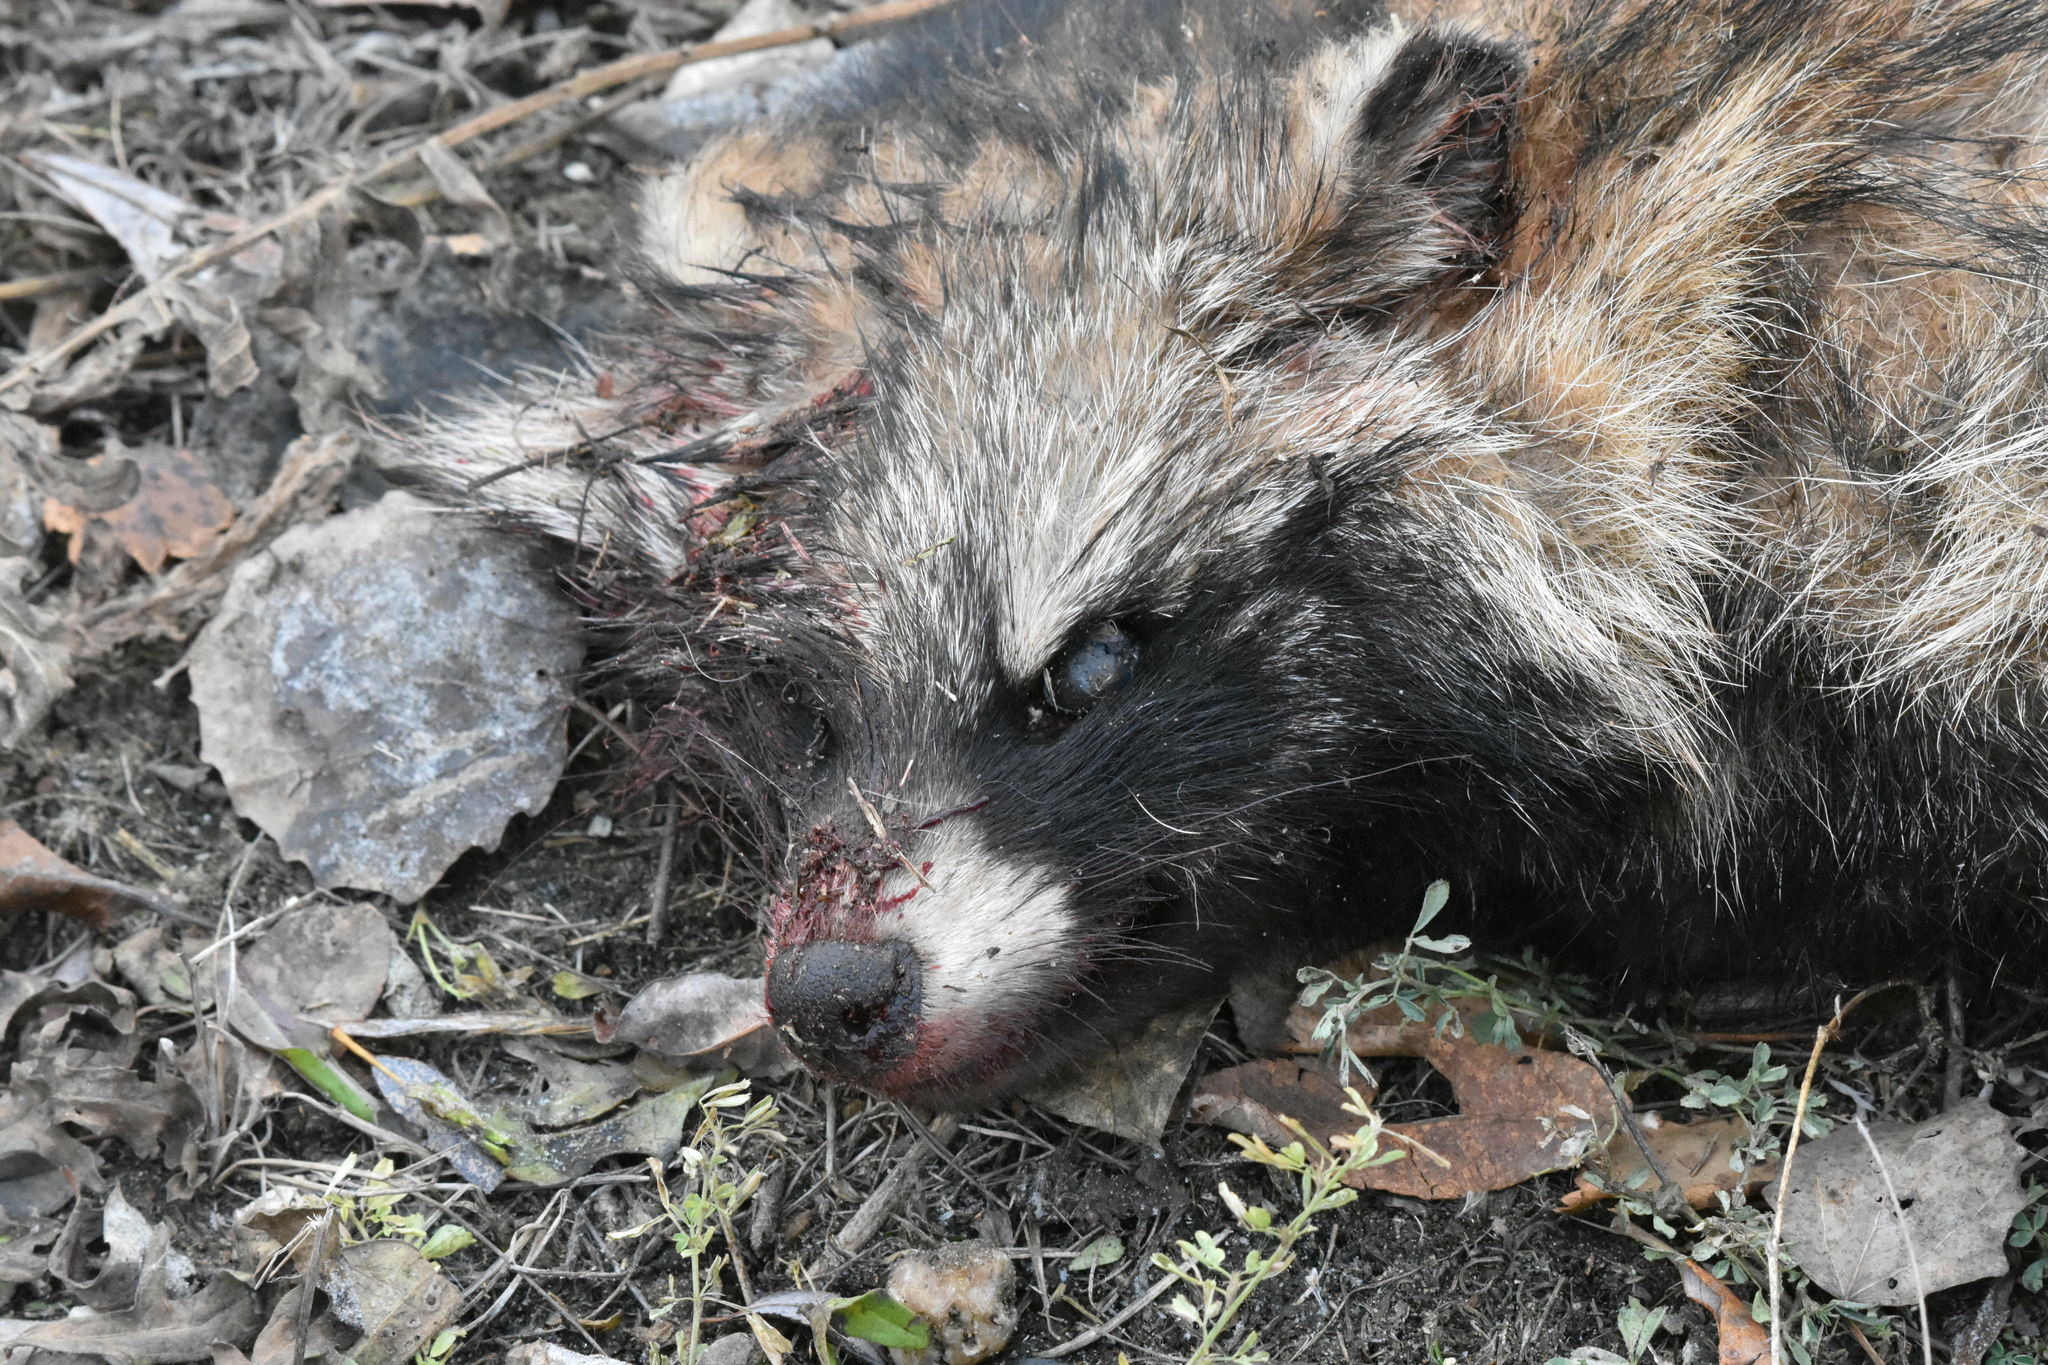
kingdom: Animalia
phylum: Chordata
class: Mammalia
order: Carnivora
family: Canidae
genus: Nyctereutes
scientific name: Nyctereutes procyonoides
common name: Raccoon dog
